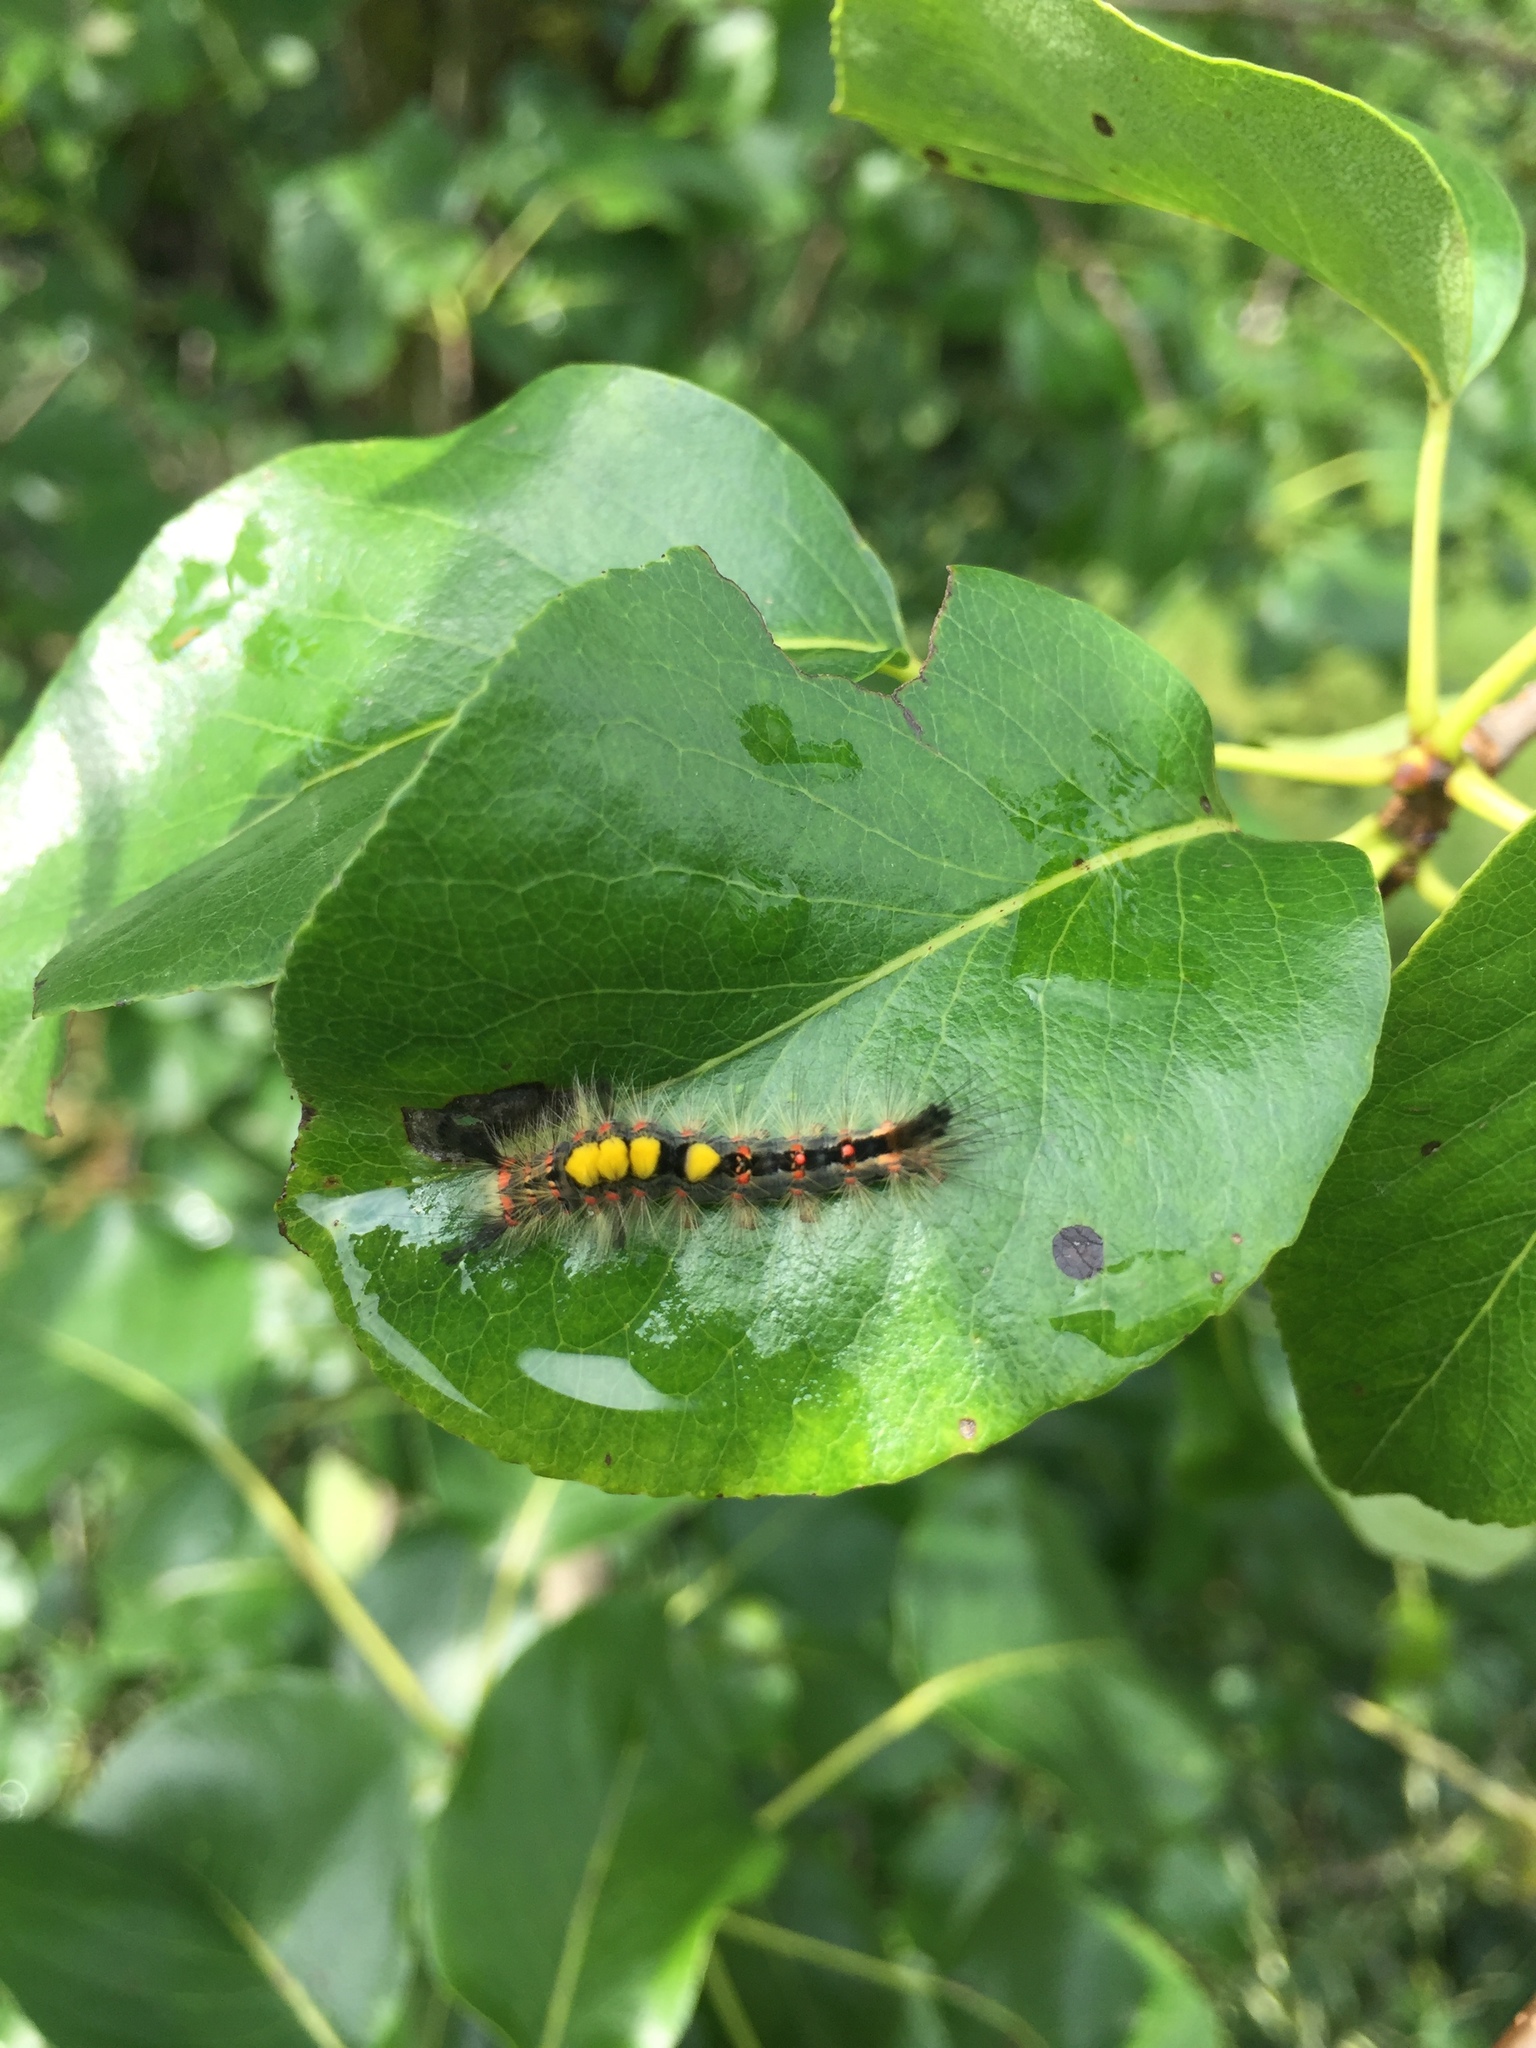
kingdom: Animalia
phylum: Arthropoda
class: Insecta
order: Lepidoptera
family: Erebidae
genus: Orgyia
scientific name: Orgyia antiqua
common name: Vapourer
